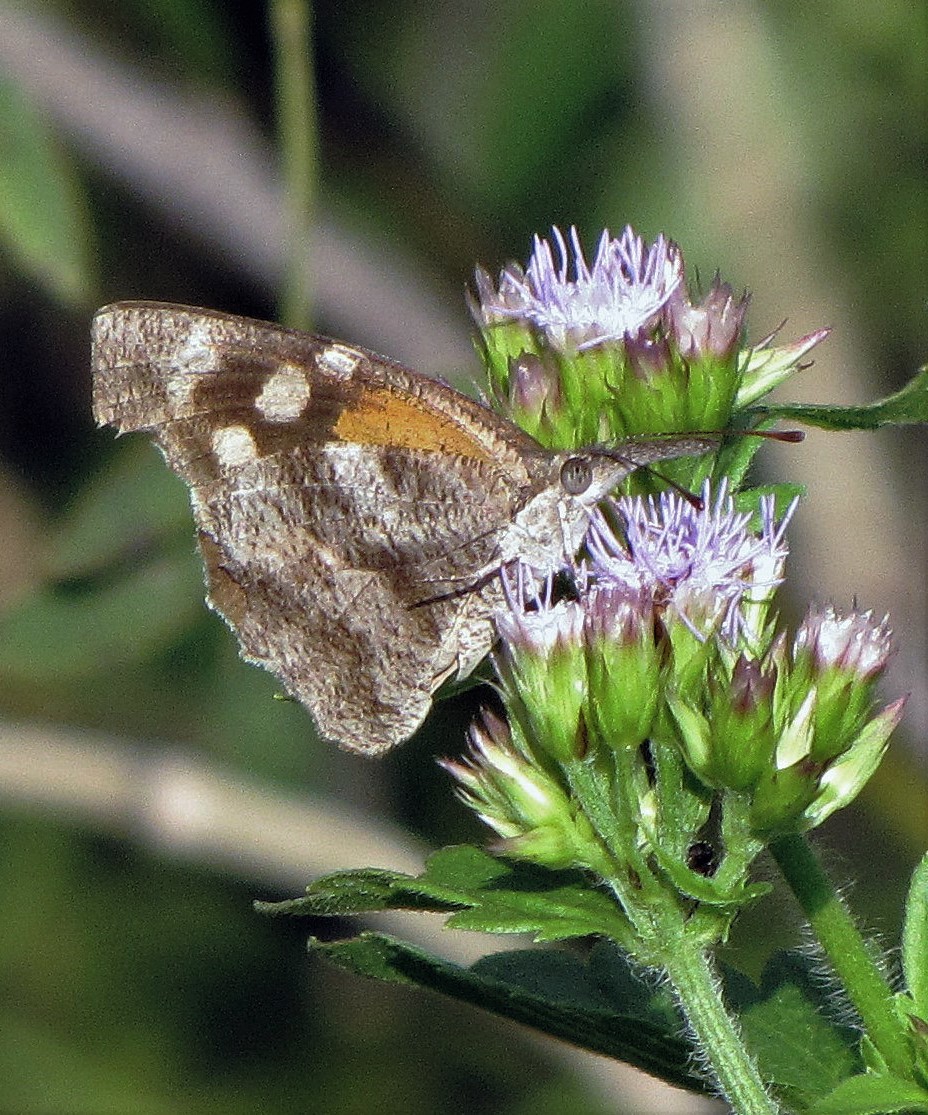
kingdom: Animalia
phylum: Arthropoda
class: Insecta
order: Lepidoptera
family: Nymphalidae
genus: Libytheana
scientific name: Libytheana carinenta
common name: American snout
